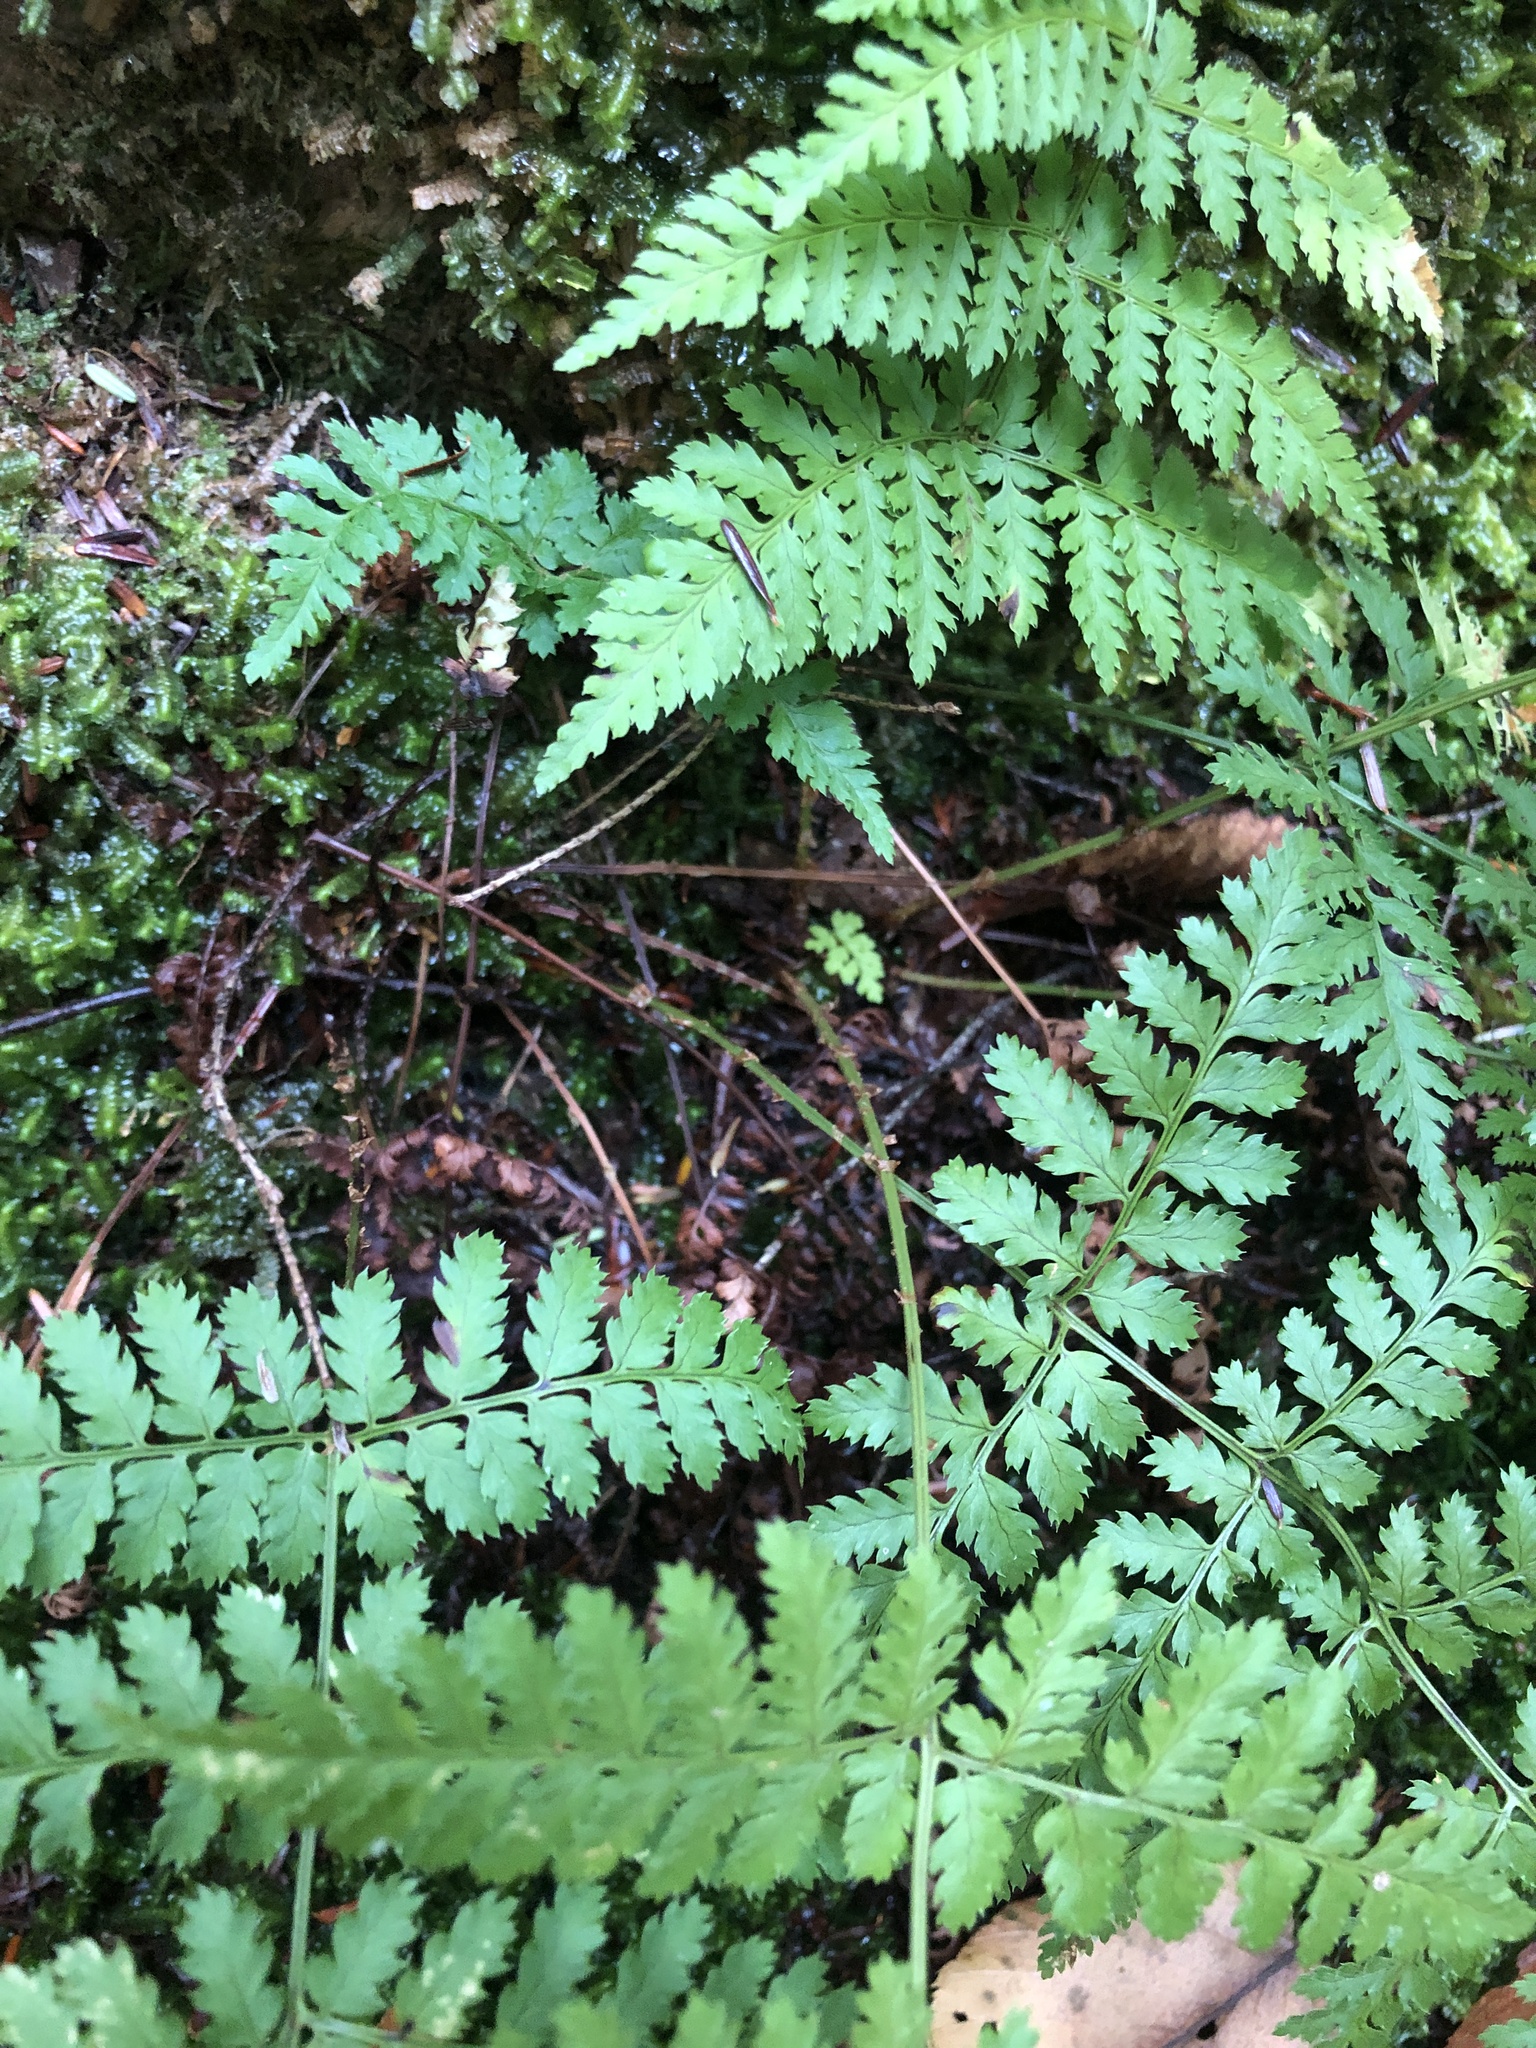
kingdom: Plantae
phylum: Tracheophyta
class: Polypodiopsida
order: Polypodiales
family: Dryopteridaceae
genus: Dryopteris
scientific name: Dryopteris intermedia
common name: Evergreen wood fern
